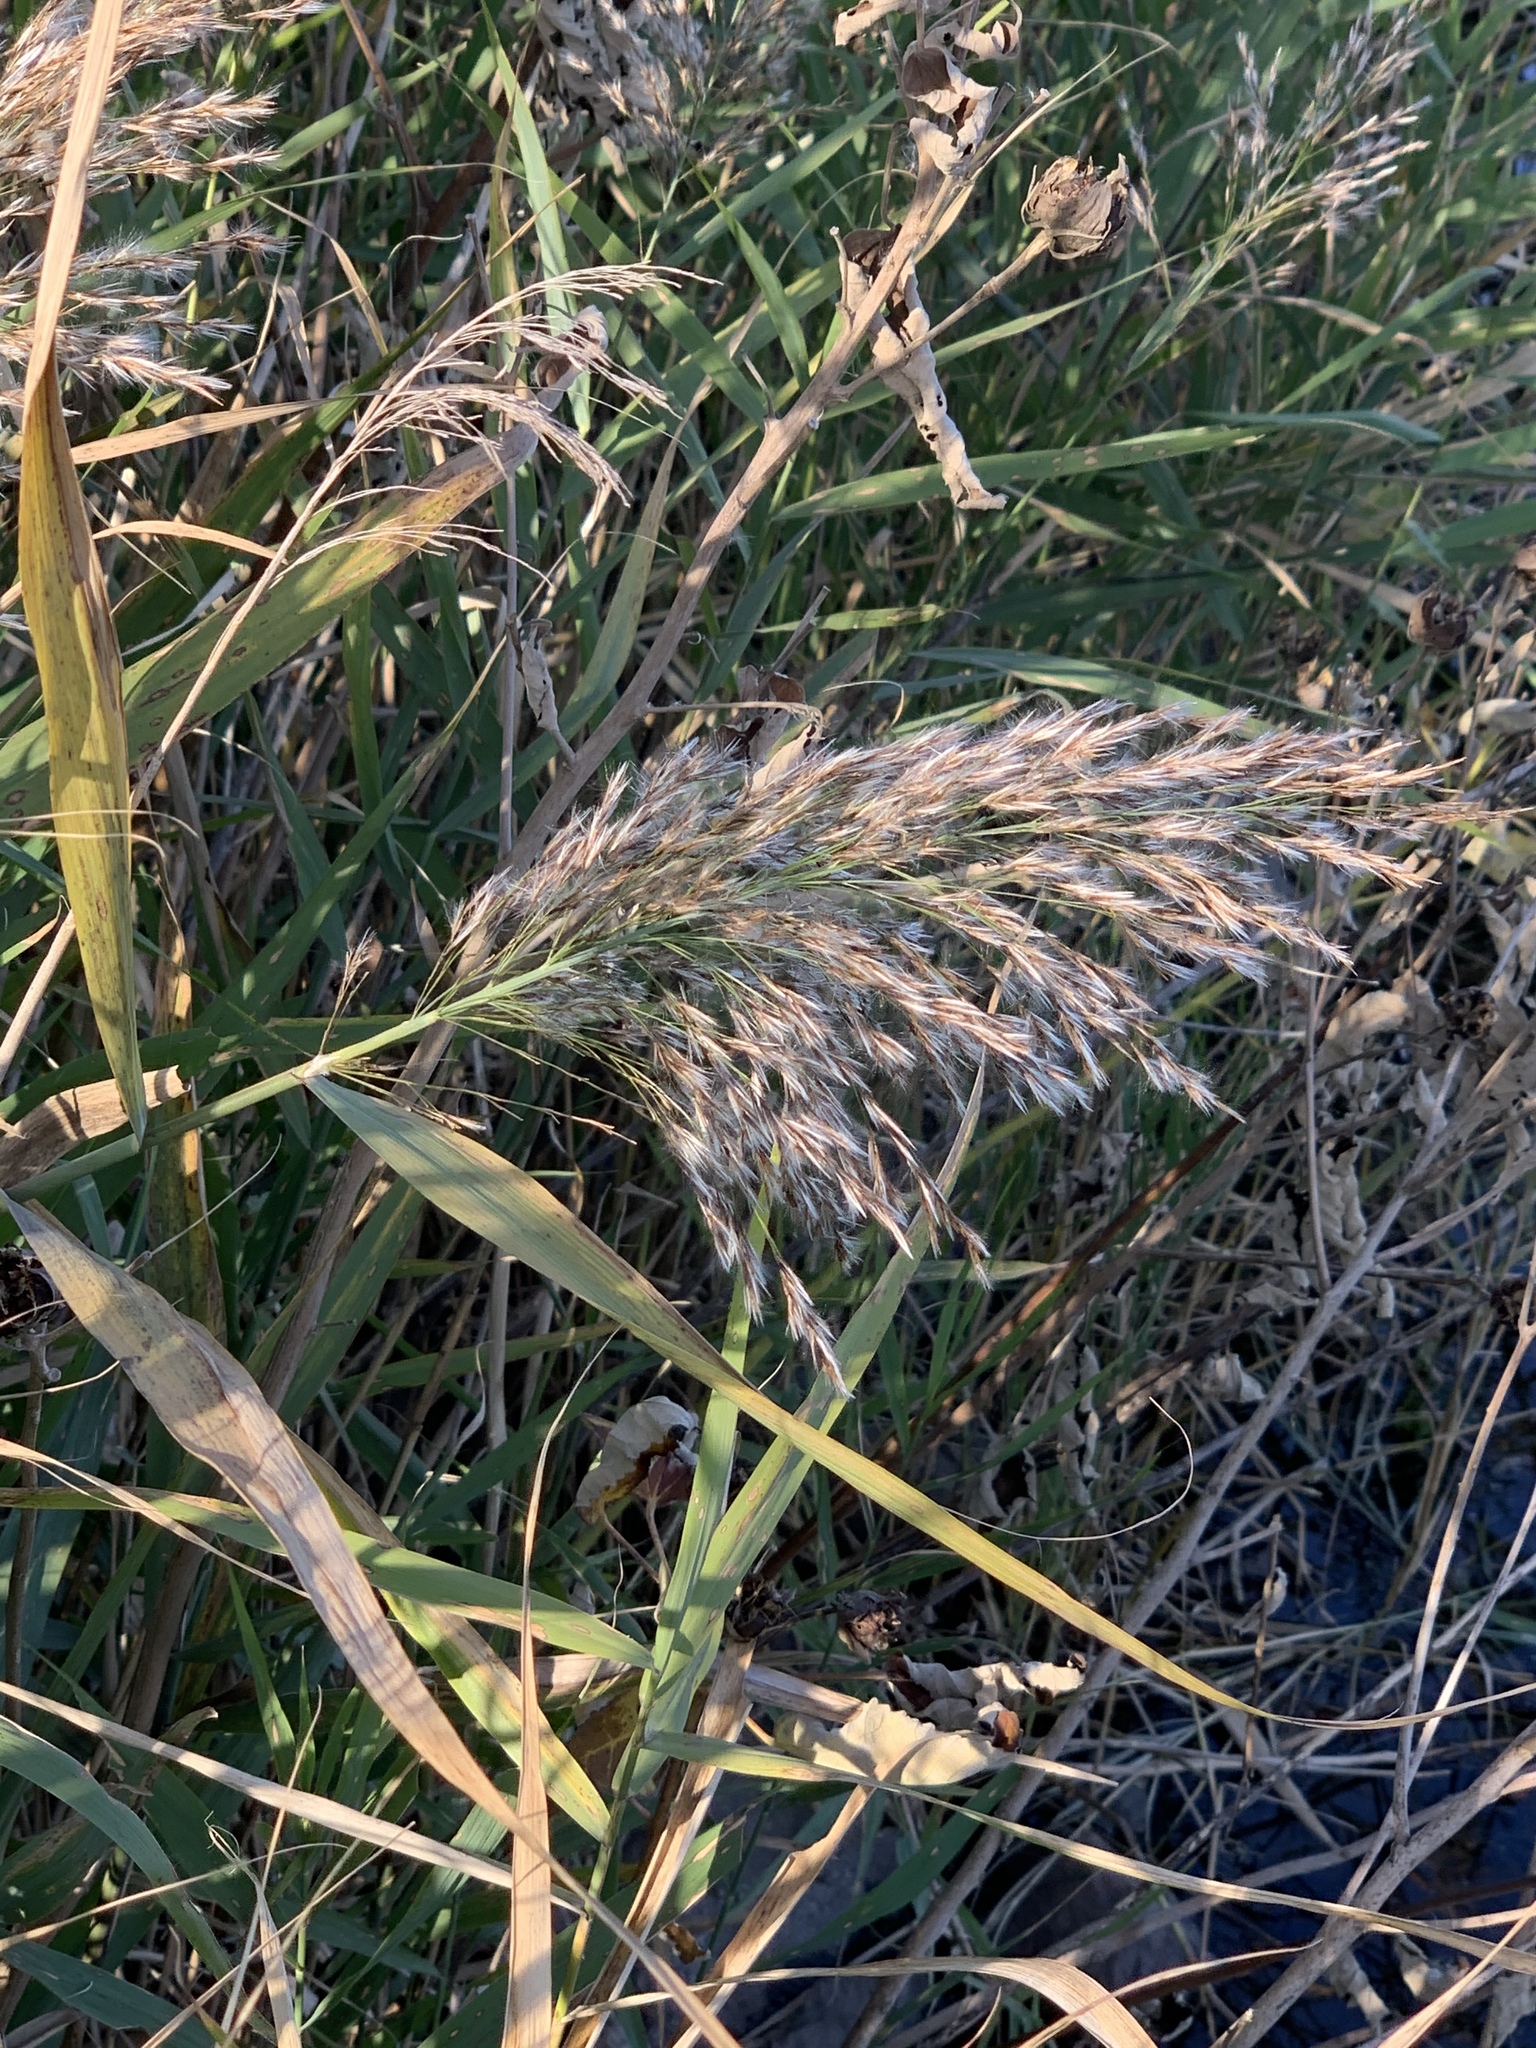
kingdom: Plantae
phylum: Tracheophyta
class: Liliopsida
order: Poales
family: Poaceae
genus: Phragmites
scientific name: Phragmites australis
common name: Common reed
